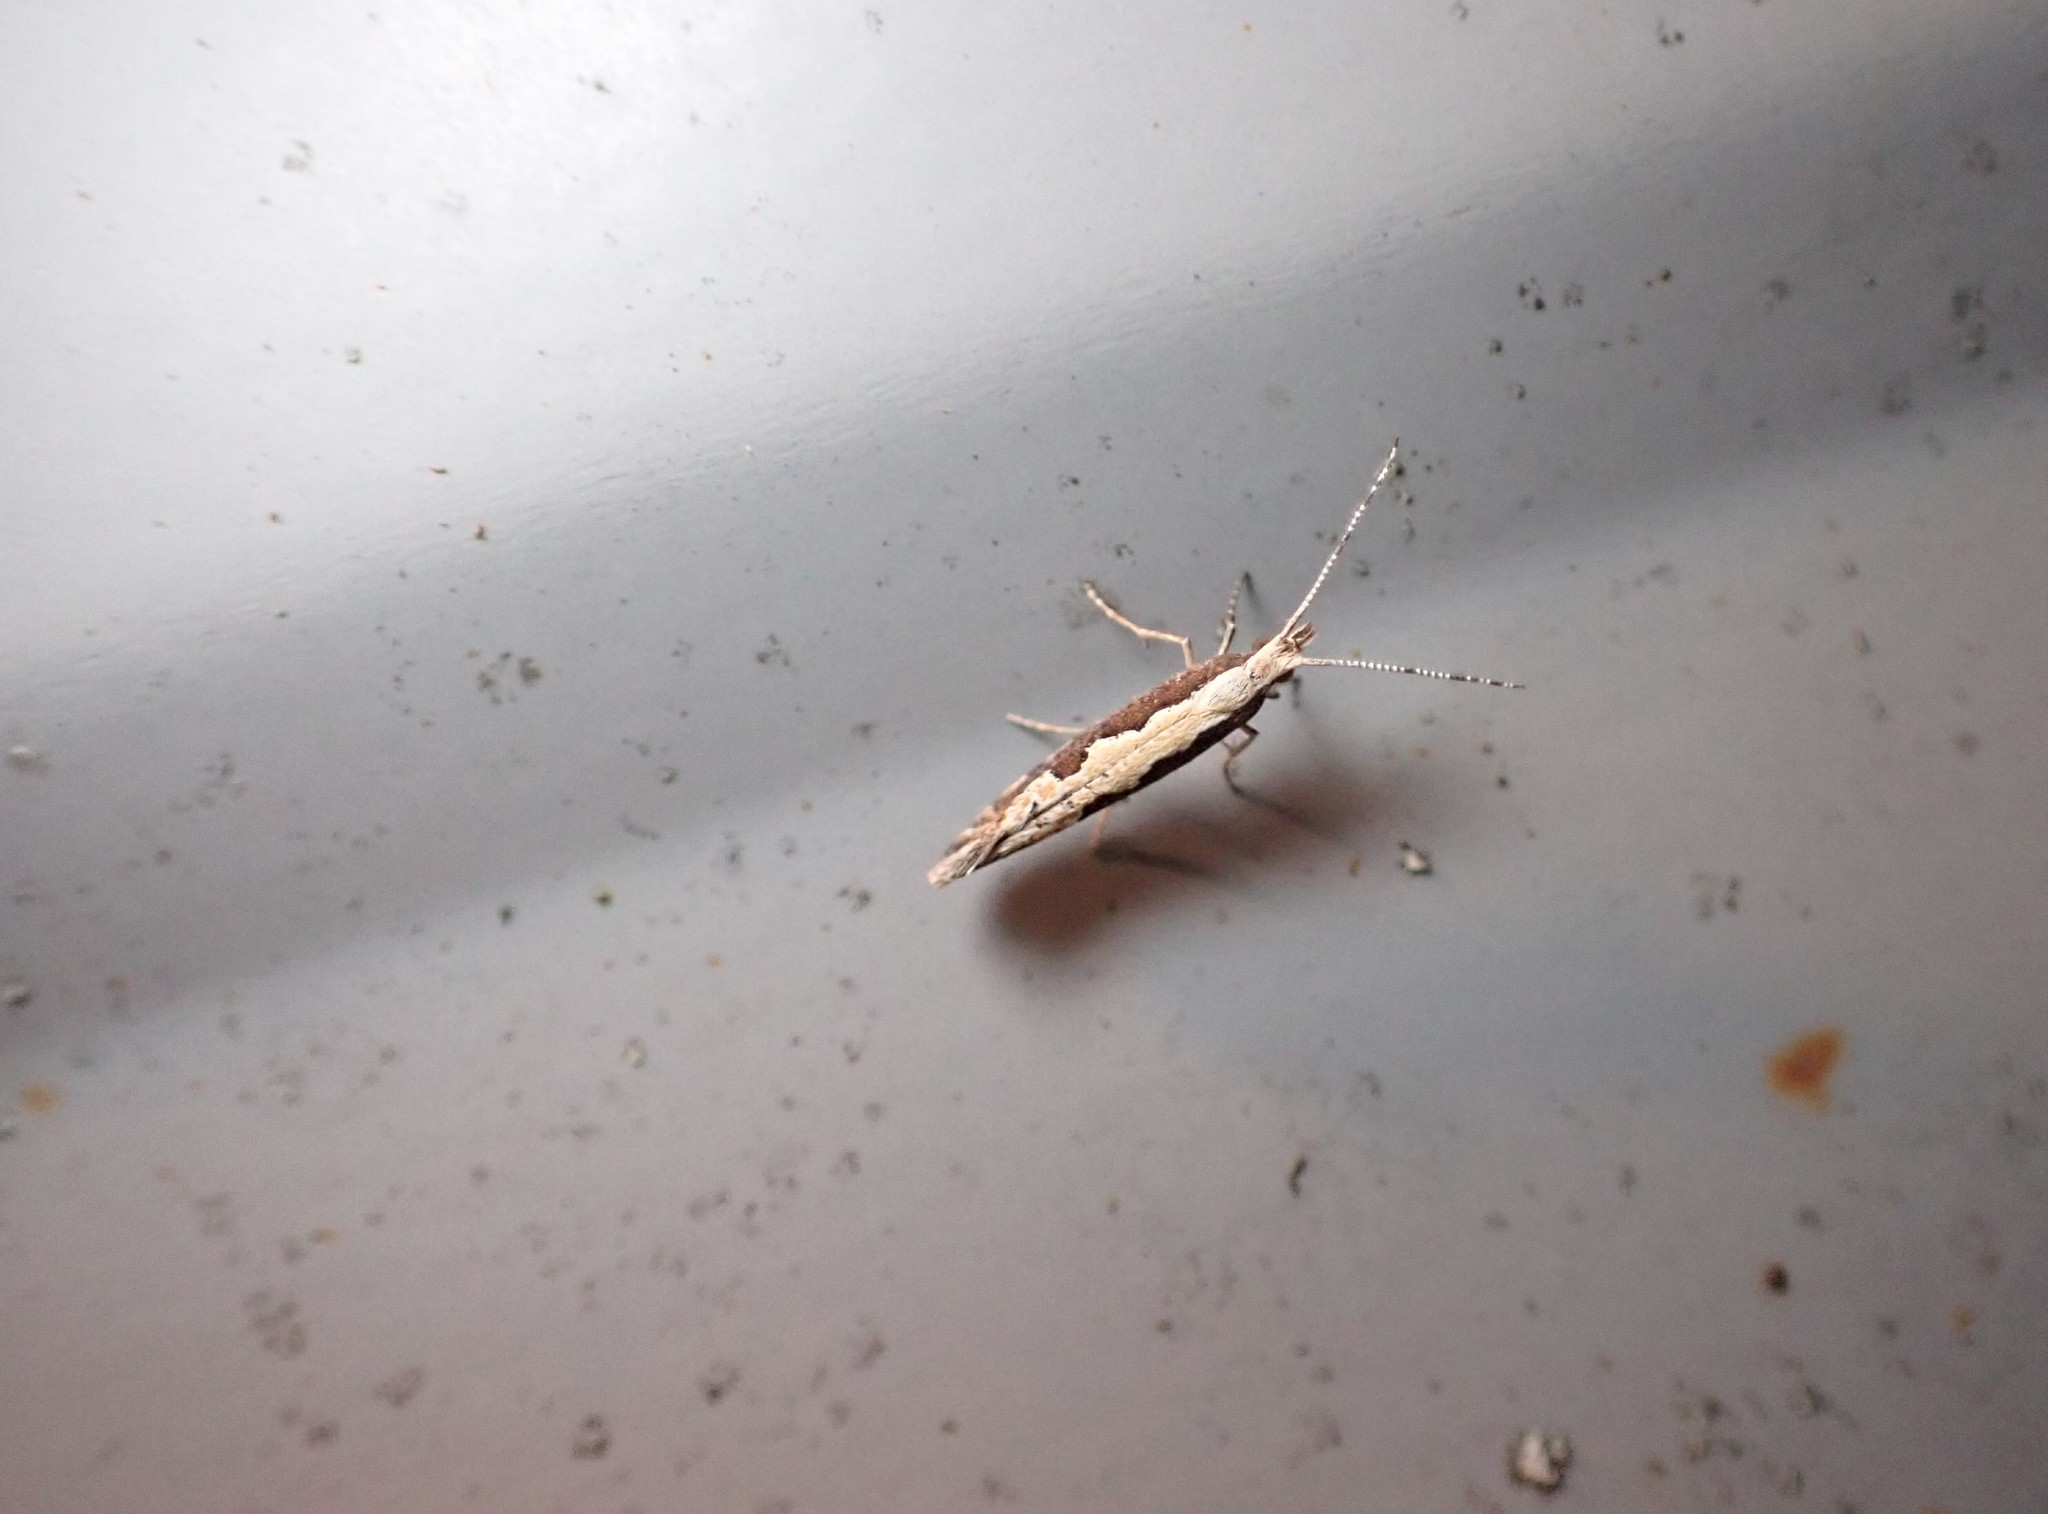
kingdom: Animalia
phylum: Arthropoda
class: Insecta
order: Lepidoptera
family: Plutellidae
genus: Plutella
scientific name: Plutella xylostella
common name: Diamond-back moth
